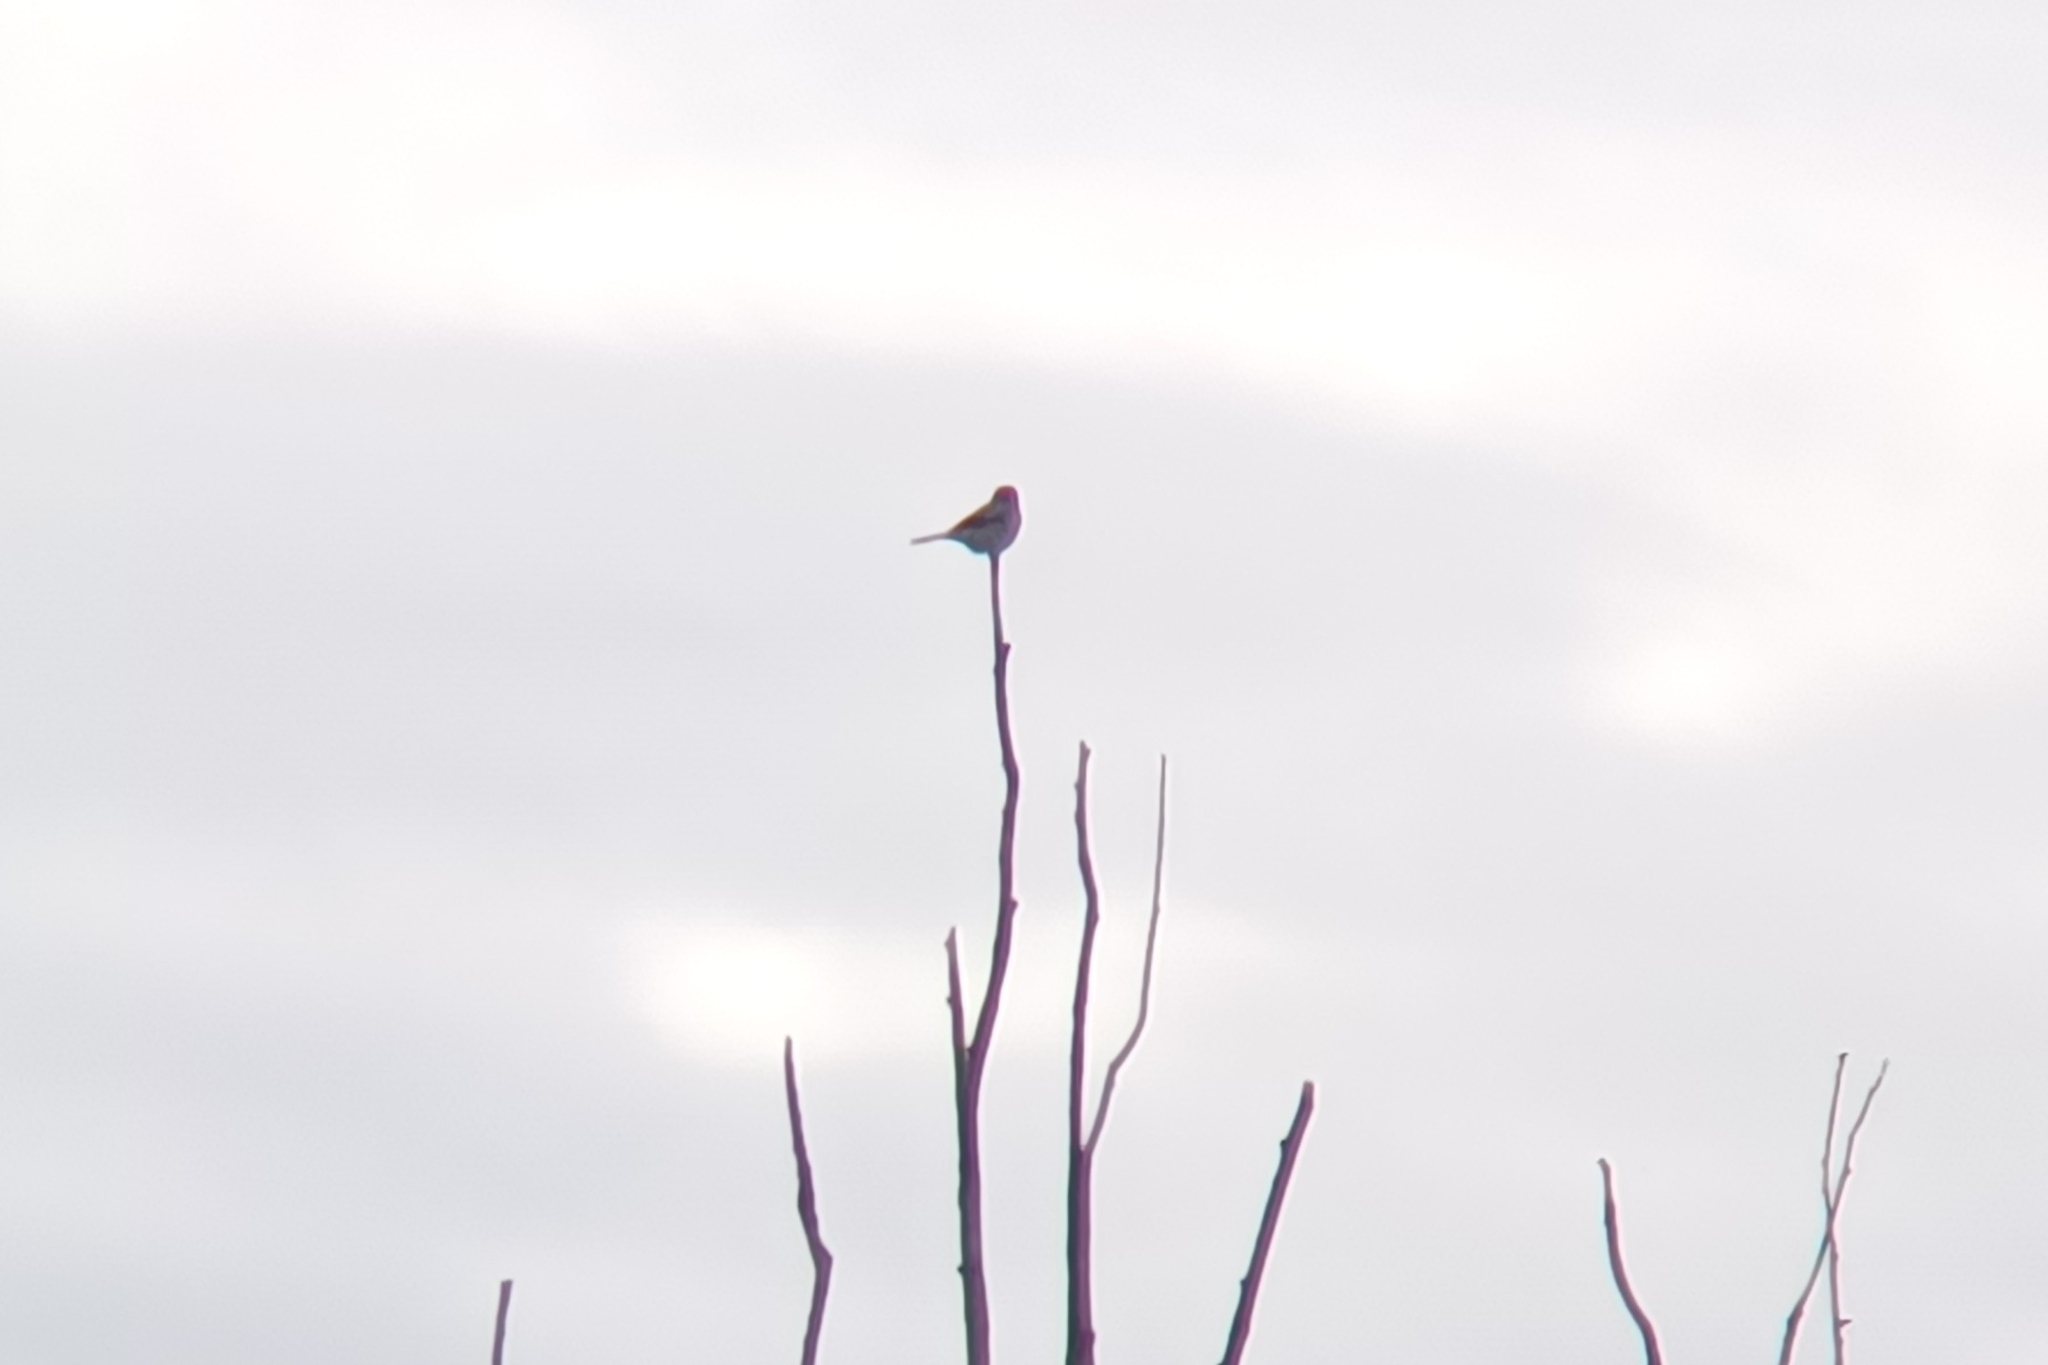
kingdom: Animalia
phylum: Chordata
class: Aves
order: Passeriformes
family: Laniidae
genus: Lanius
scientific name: Lanius borealis
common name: Northern shrike
